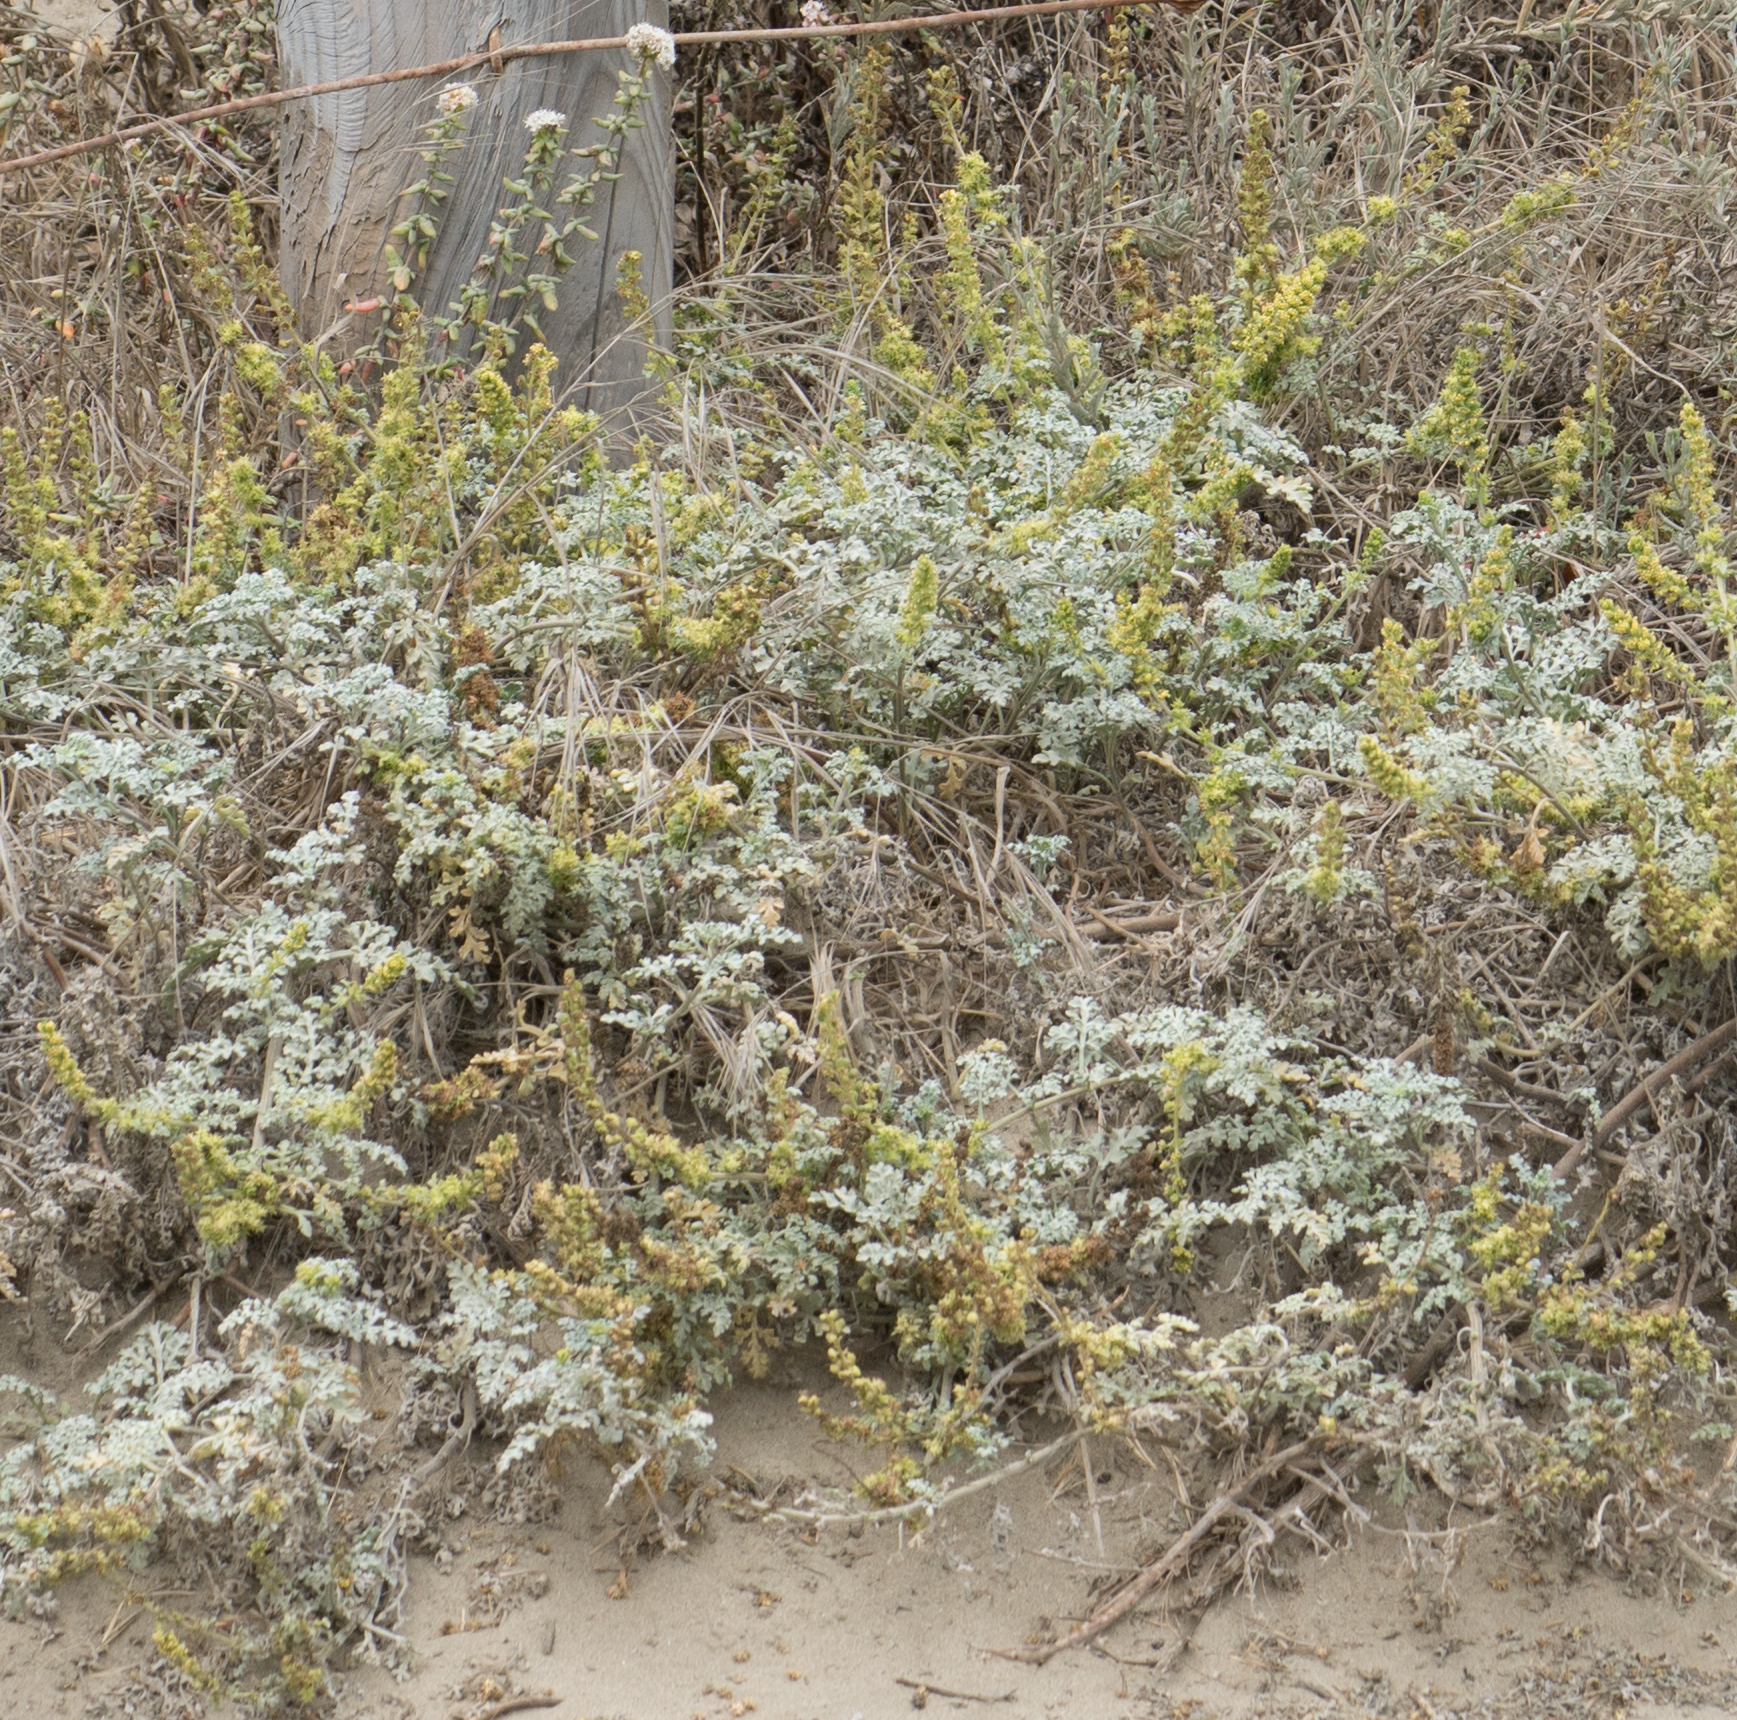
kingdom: Plantae
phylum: Tracheophyta
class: Magnoliopsida
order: Asterales
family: Asteraceae
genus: Ambrosia
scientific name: Ambrosia chamissonis
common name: Beachbur
